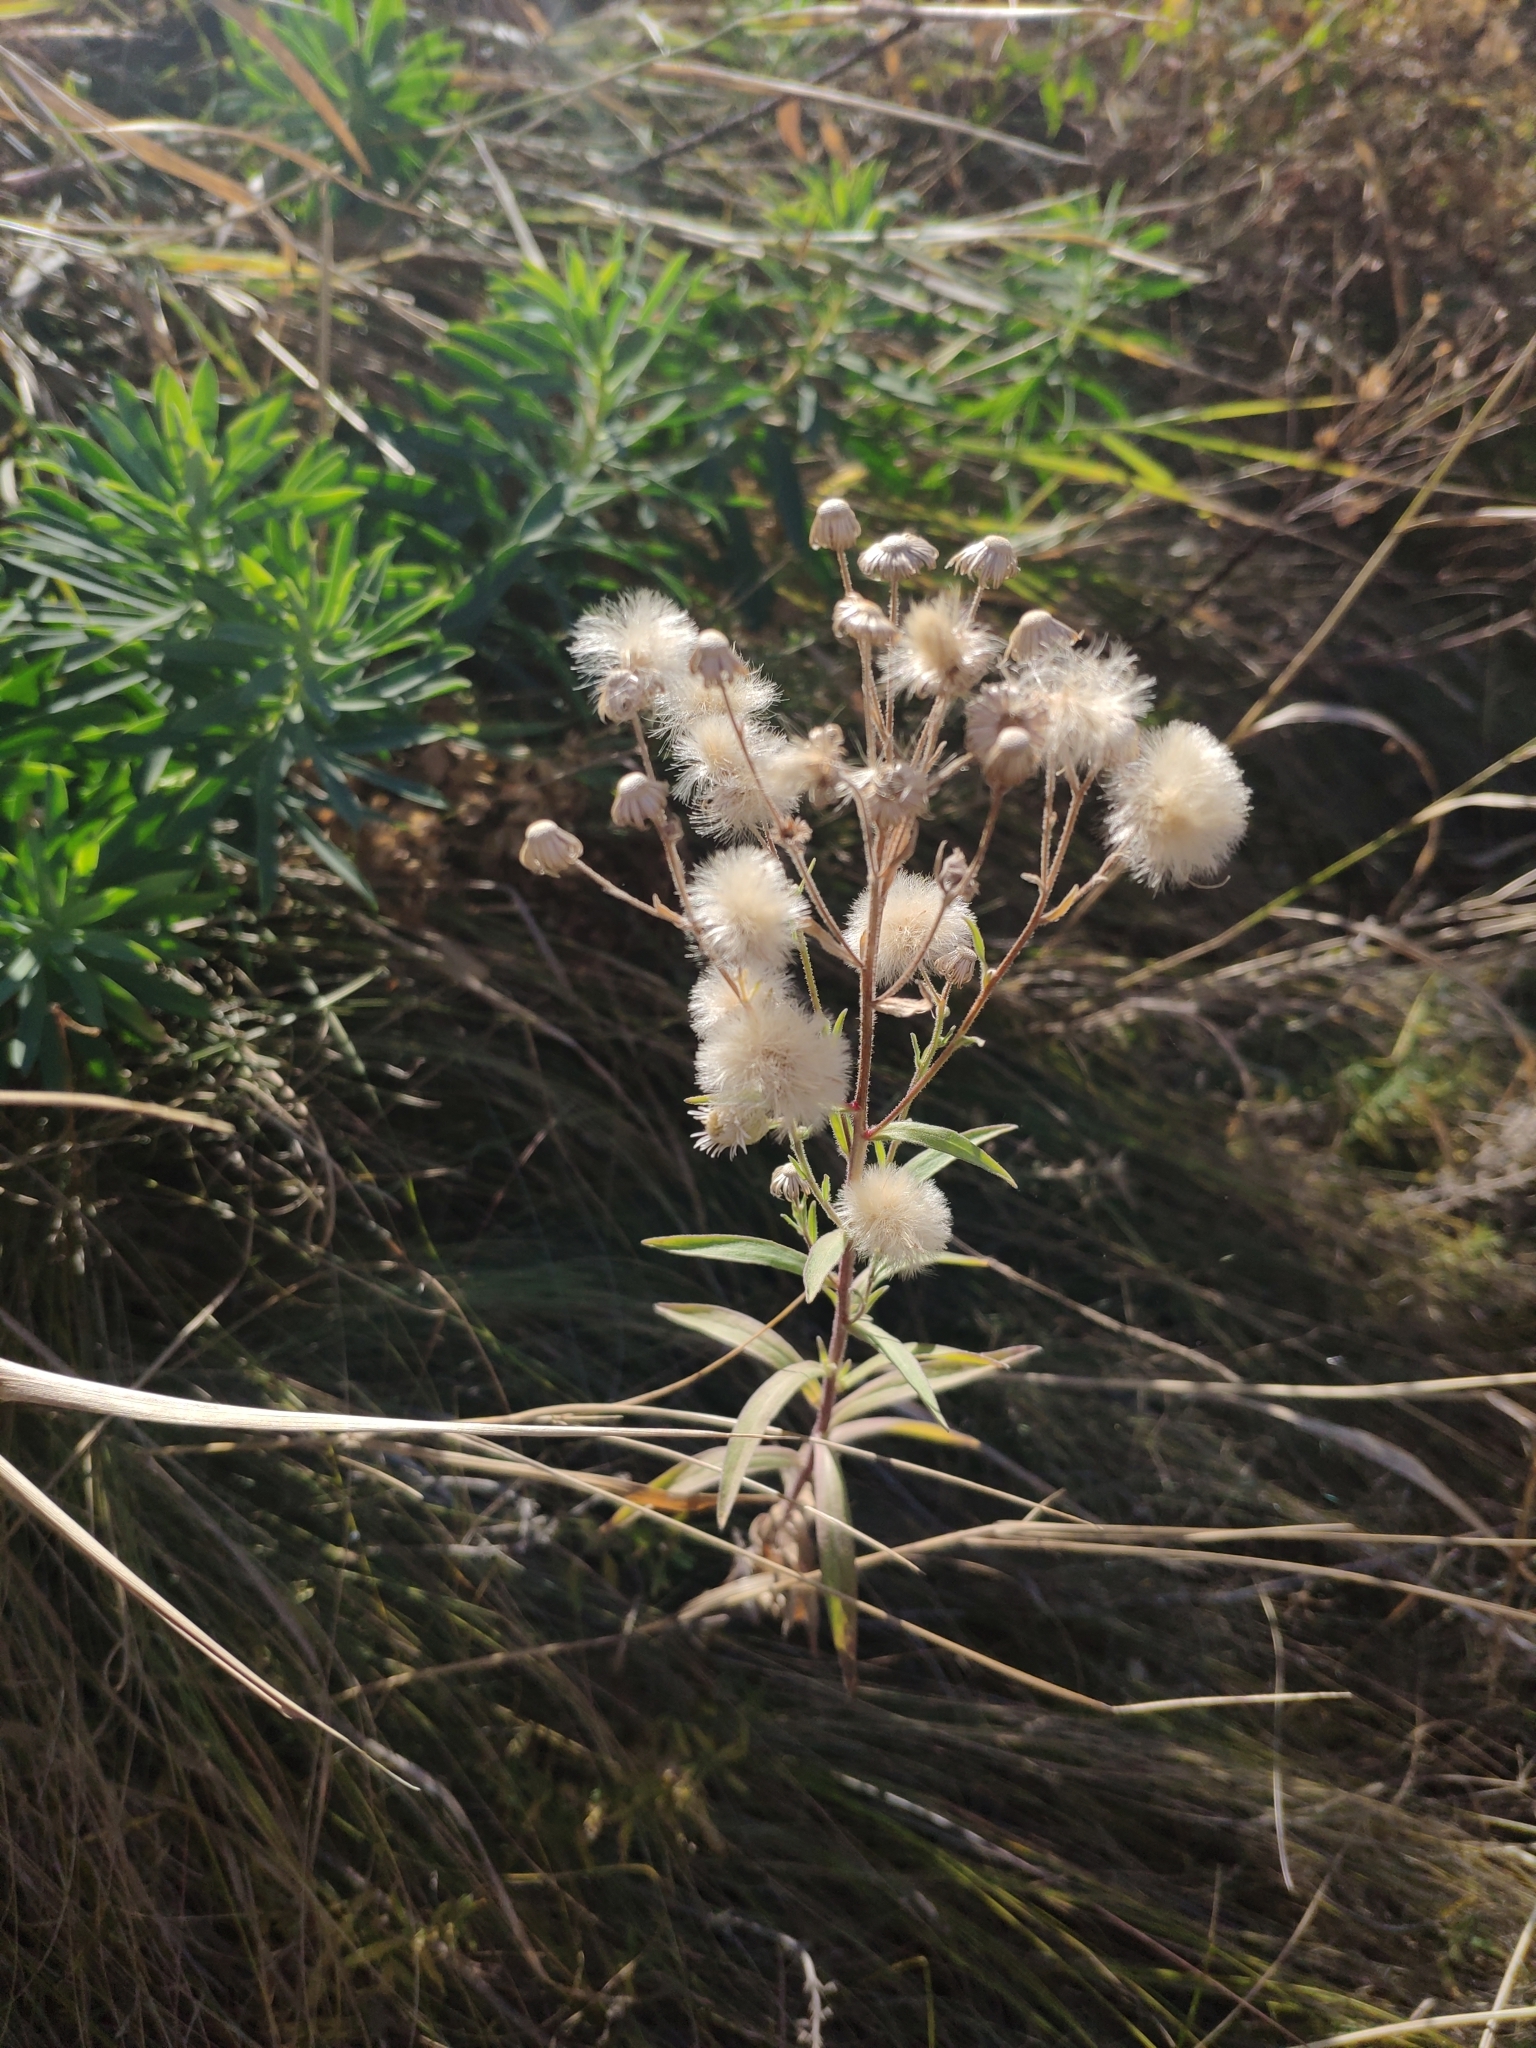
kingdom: Plantae
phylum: Tracheophyta
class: Magnoliopsida
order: Asterales
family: Asteraceae
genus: Erigeron
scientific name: Erigeron podolicus
